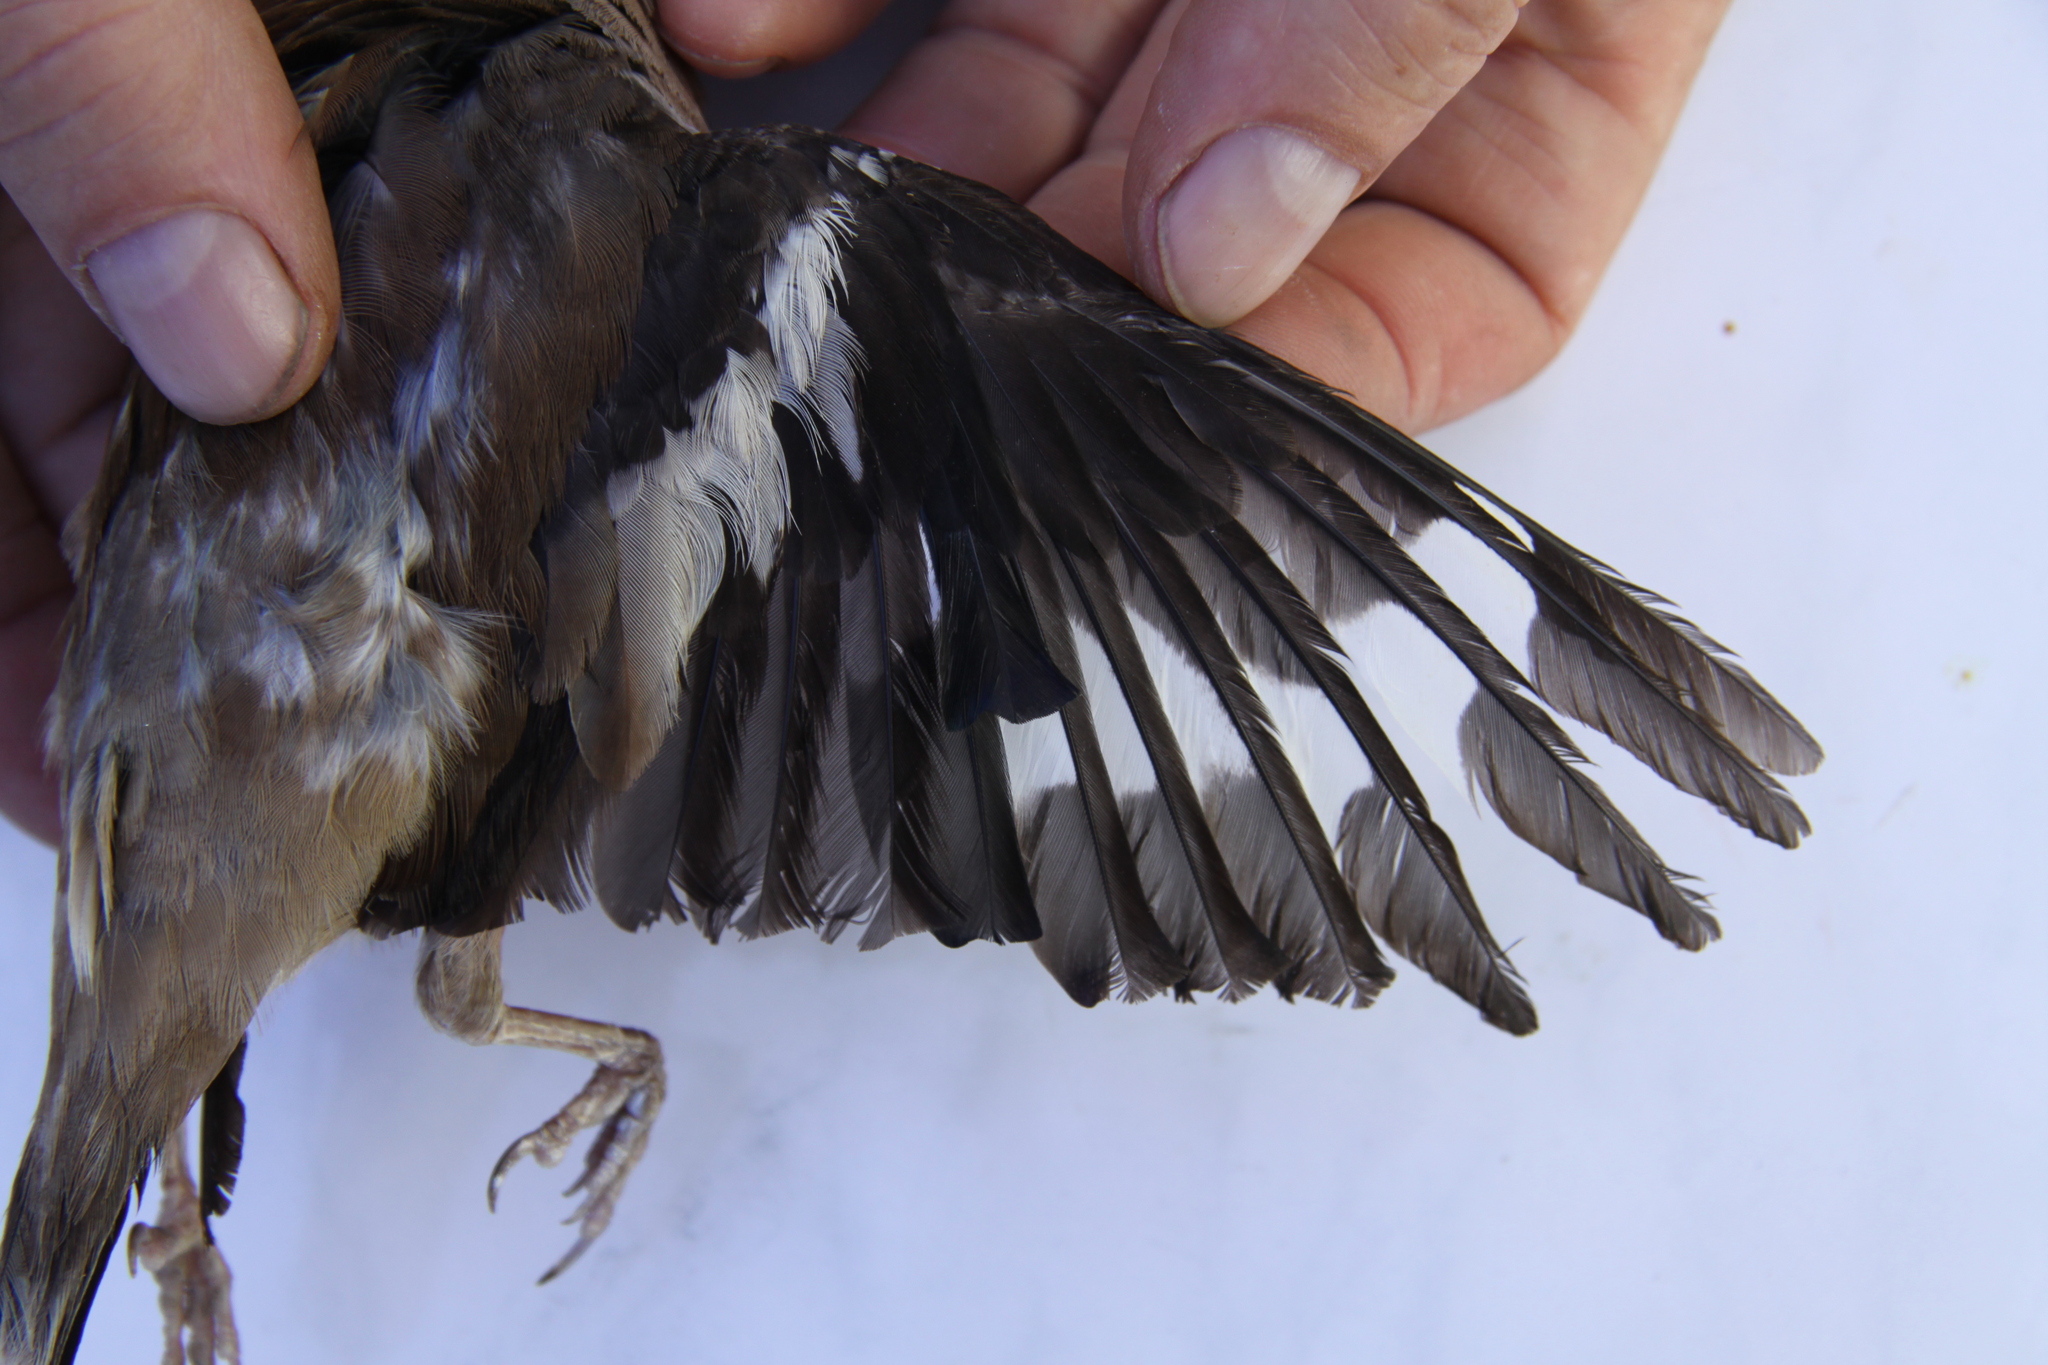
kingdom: Animalia
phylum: Chordata
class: Aves
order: Passeriformes
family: Fringillidae
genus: Coccothraustes
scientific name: Coccothraustes coccothraustes
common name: Hawfinch
